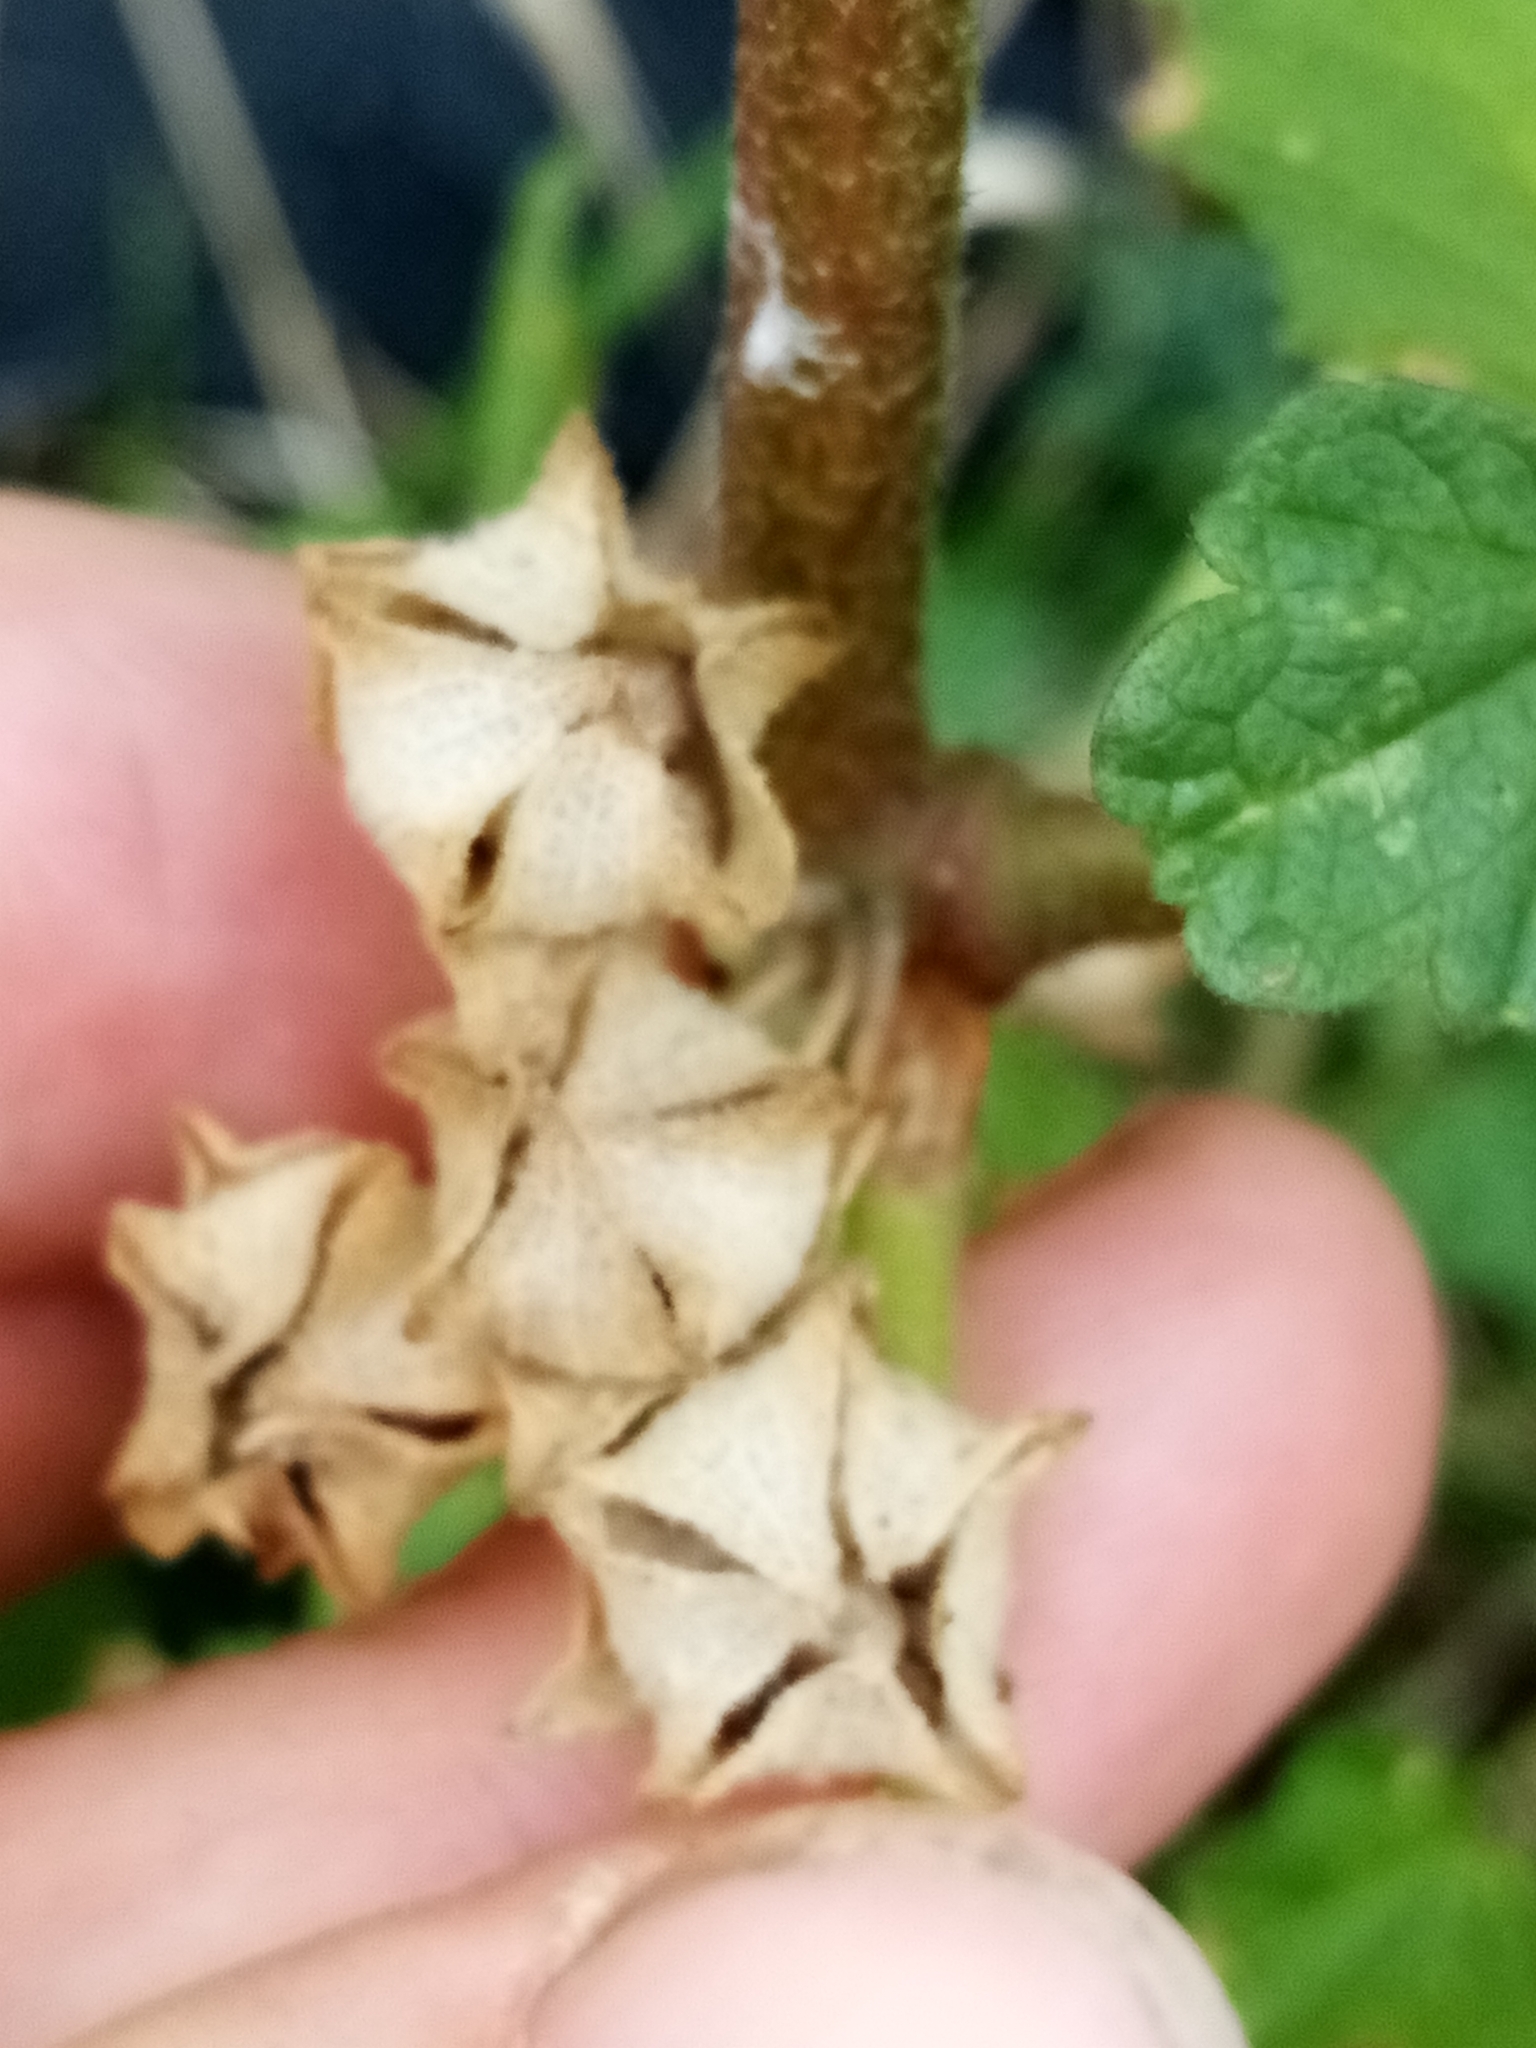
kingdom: Plantae
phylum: Tracheophyta
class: Magnoliopsida
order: Malvales
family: Malvaceae
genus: Malva
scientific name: Malva multiflora
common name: Cheeseweed
